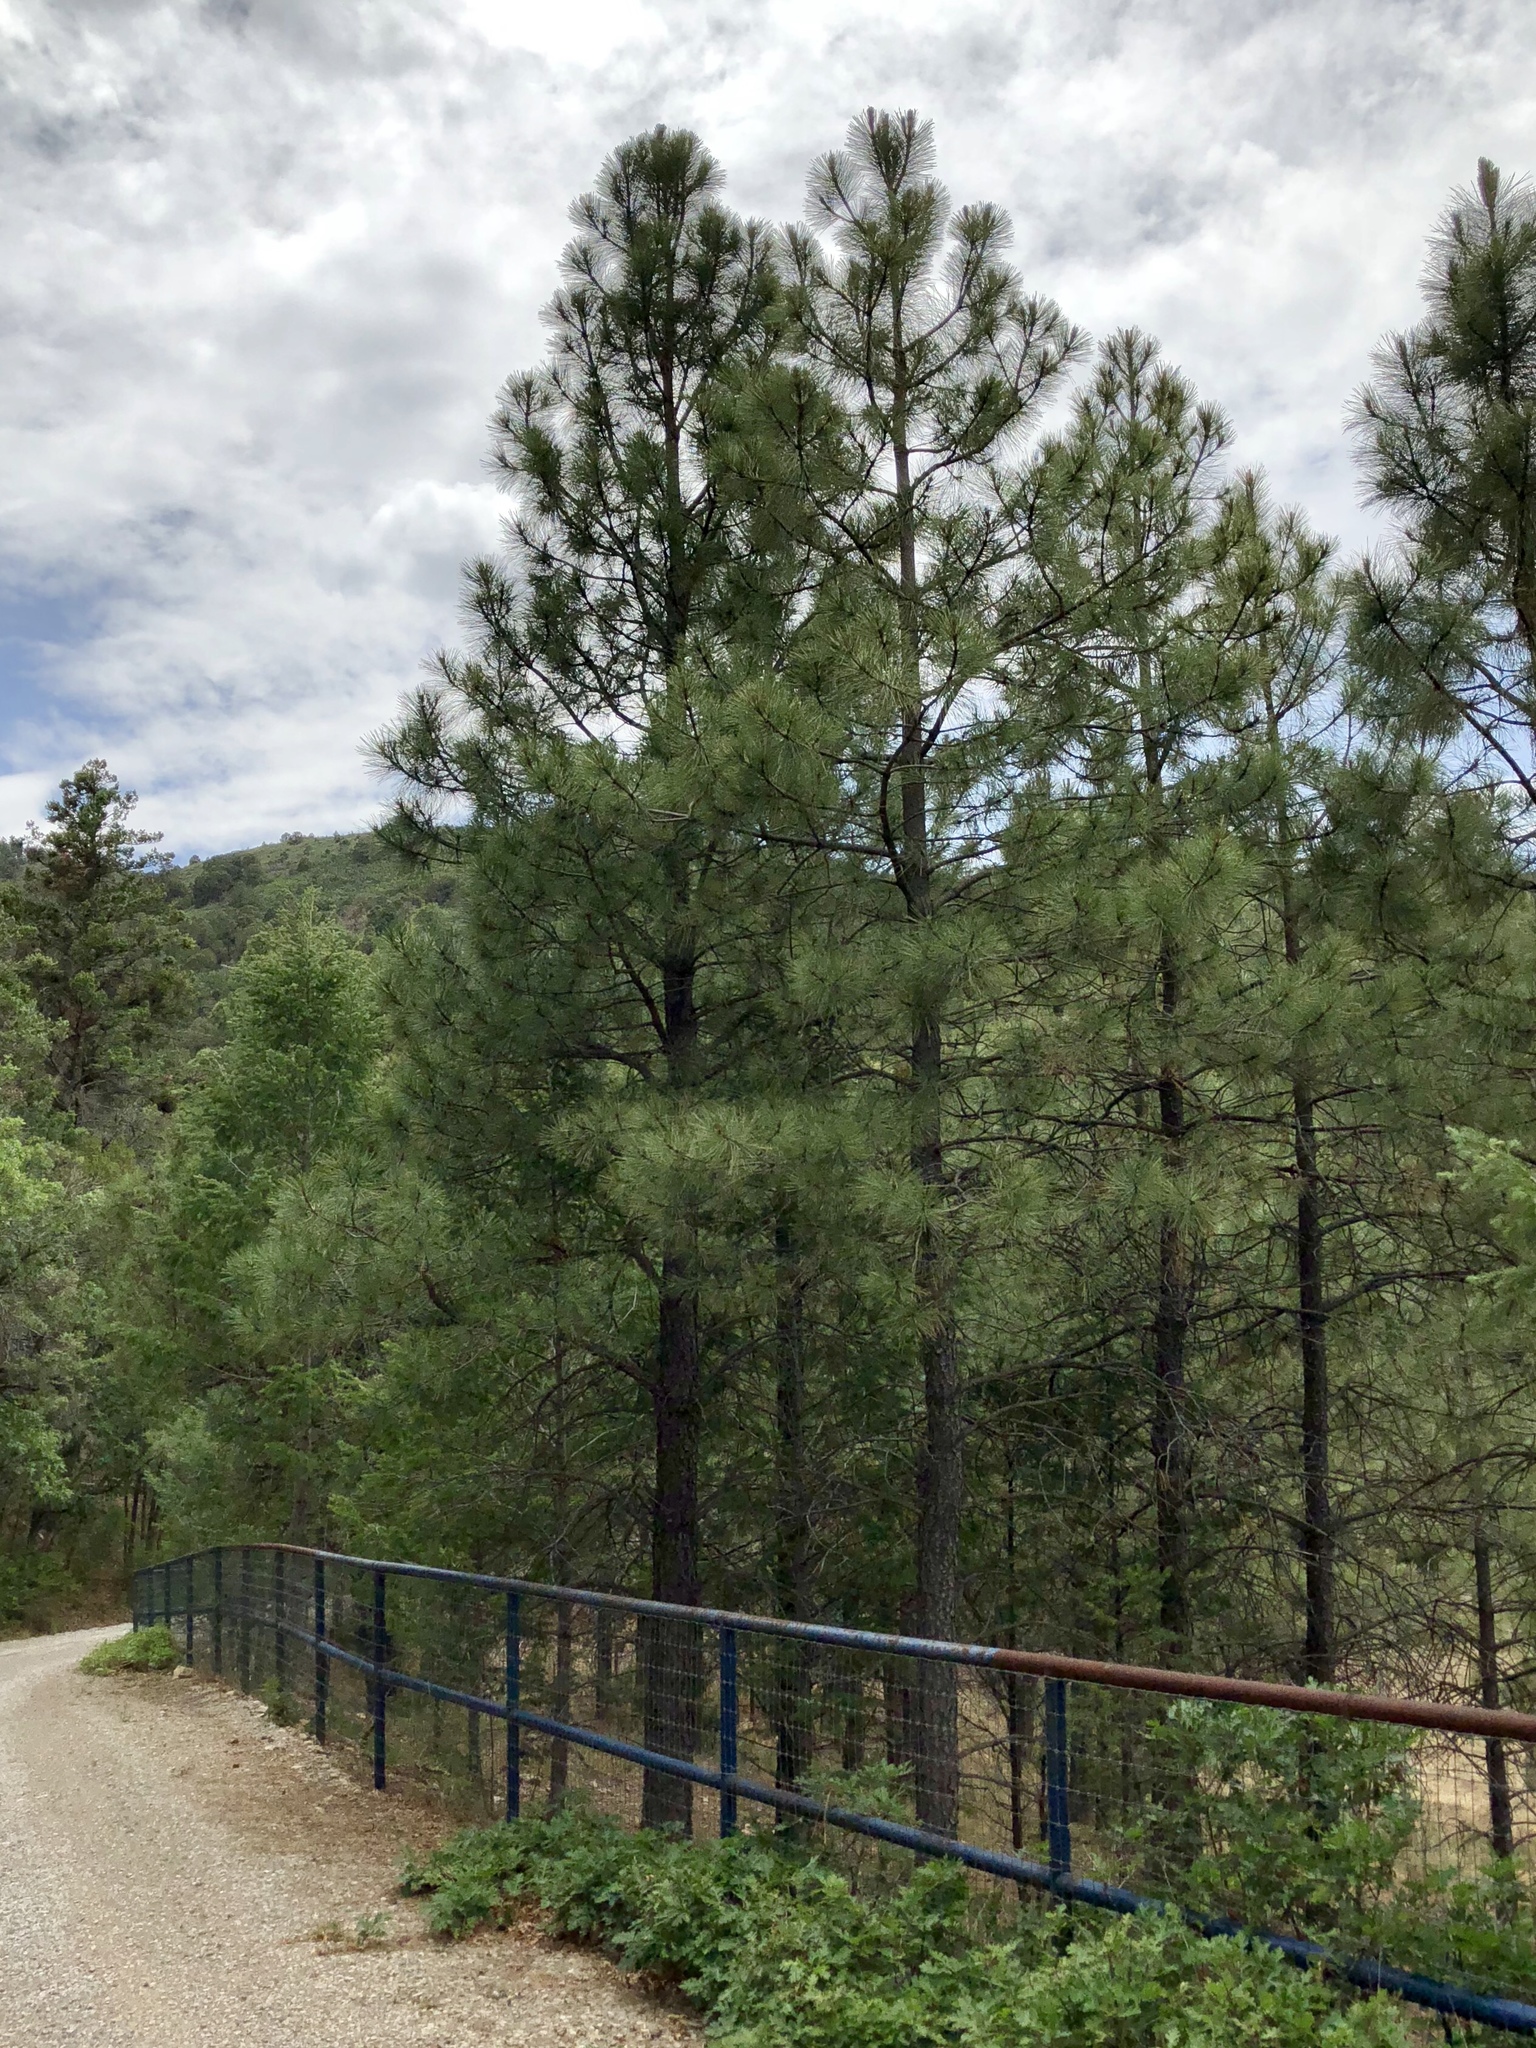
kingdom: Plantae
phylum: Tracheophyta
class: Pinopsida
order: Pinales
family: Pinaceae
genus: Pinus
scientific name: Pinus ponderosa
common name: Western yellow-pine
